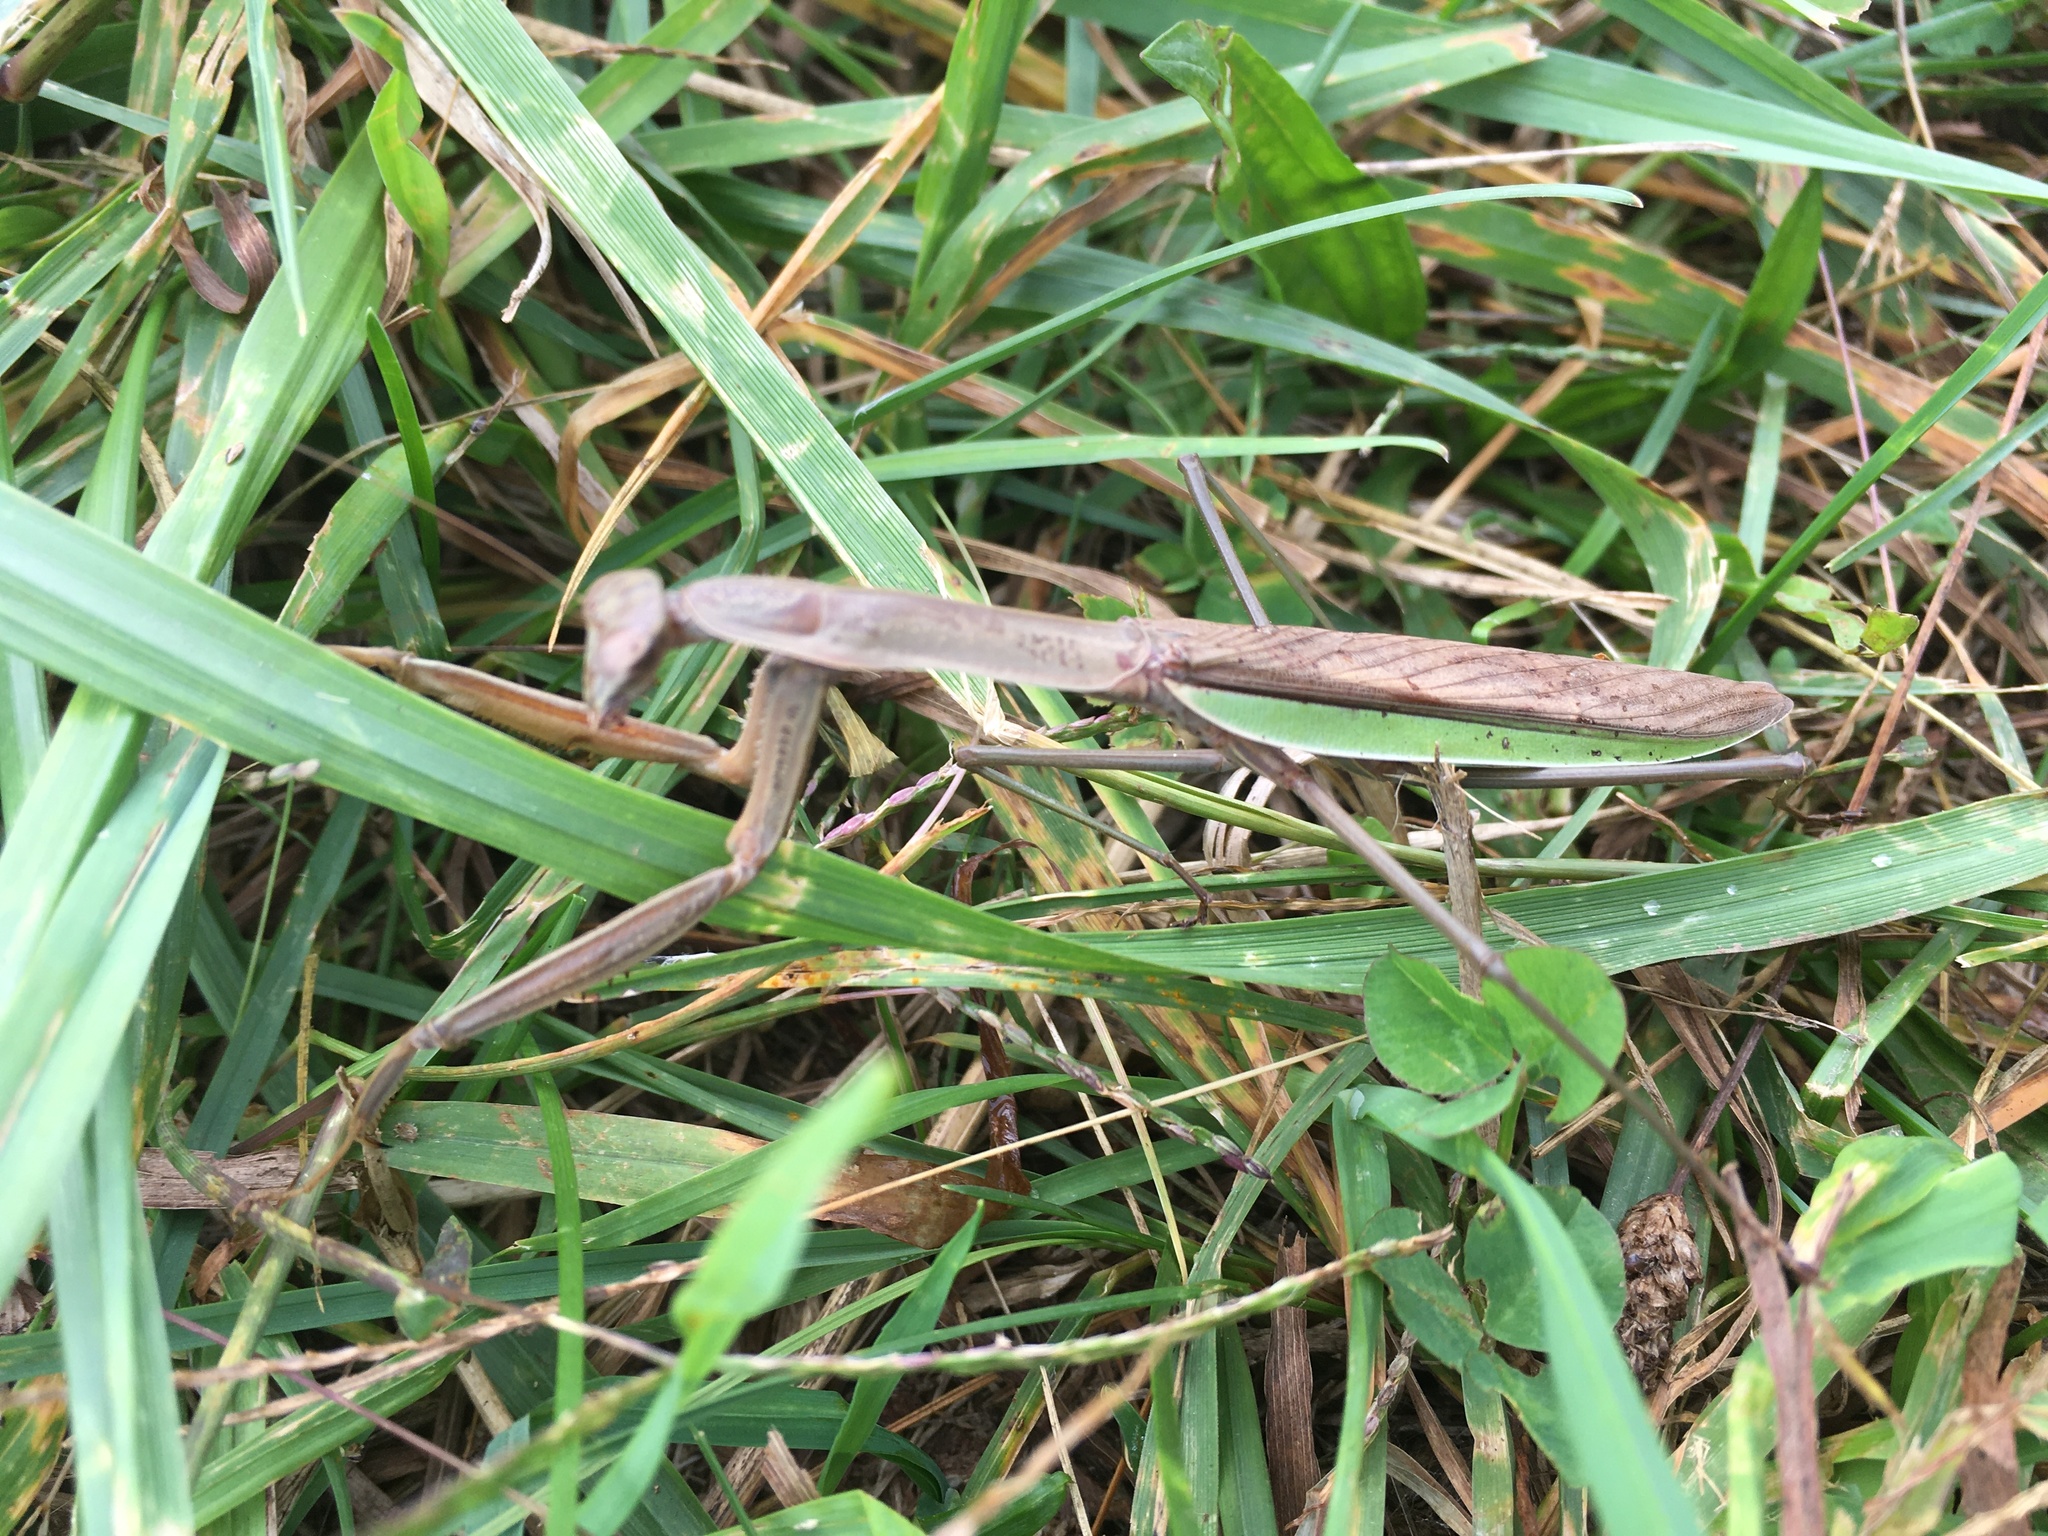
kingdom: Animalia
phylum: Arthropoda
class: Insecta
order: Mantodea
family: Mantidae
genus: Tenodera
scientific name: Tenodera sinensis
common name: Chinese mantis
